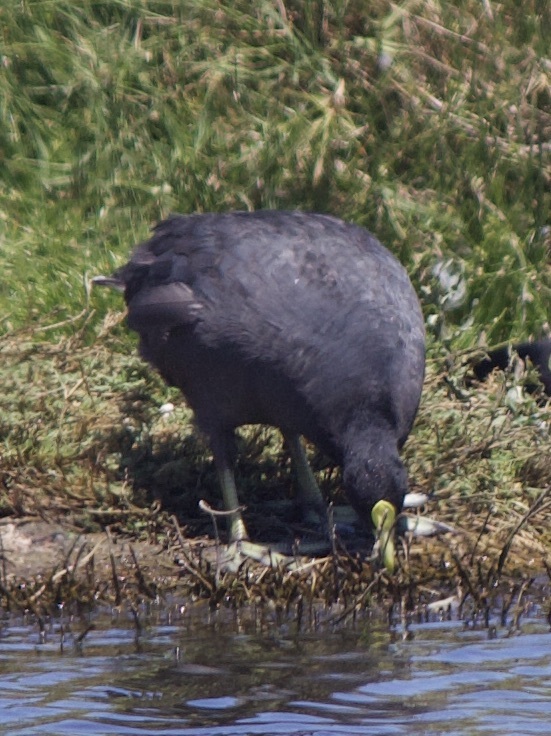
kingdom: Animalia
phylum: Chordata
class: Aves
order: Gruiformes
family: Rallidae
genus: Fulica
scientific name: Fulica leucoptera
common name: White-winged coot
